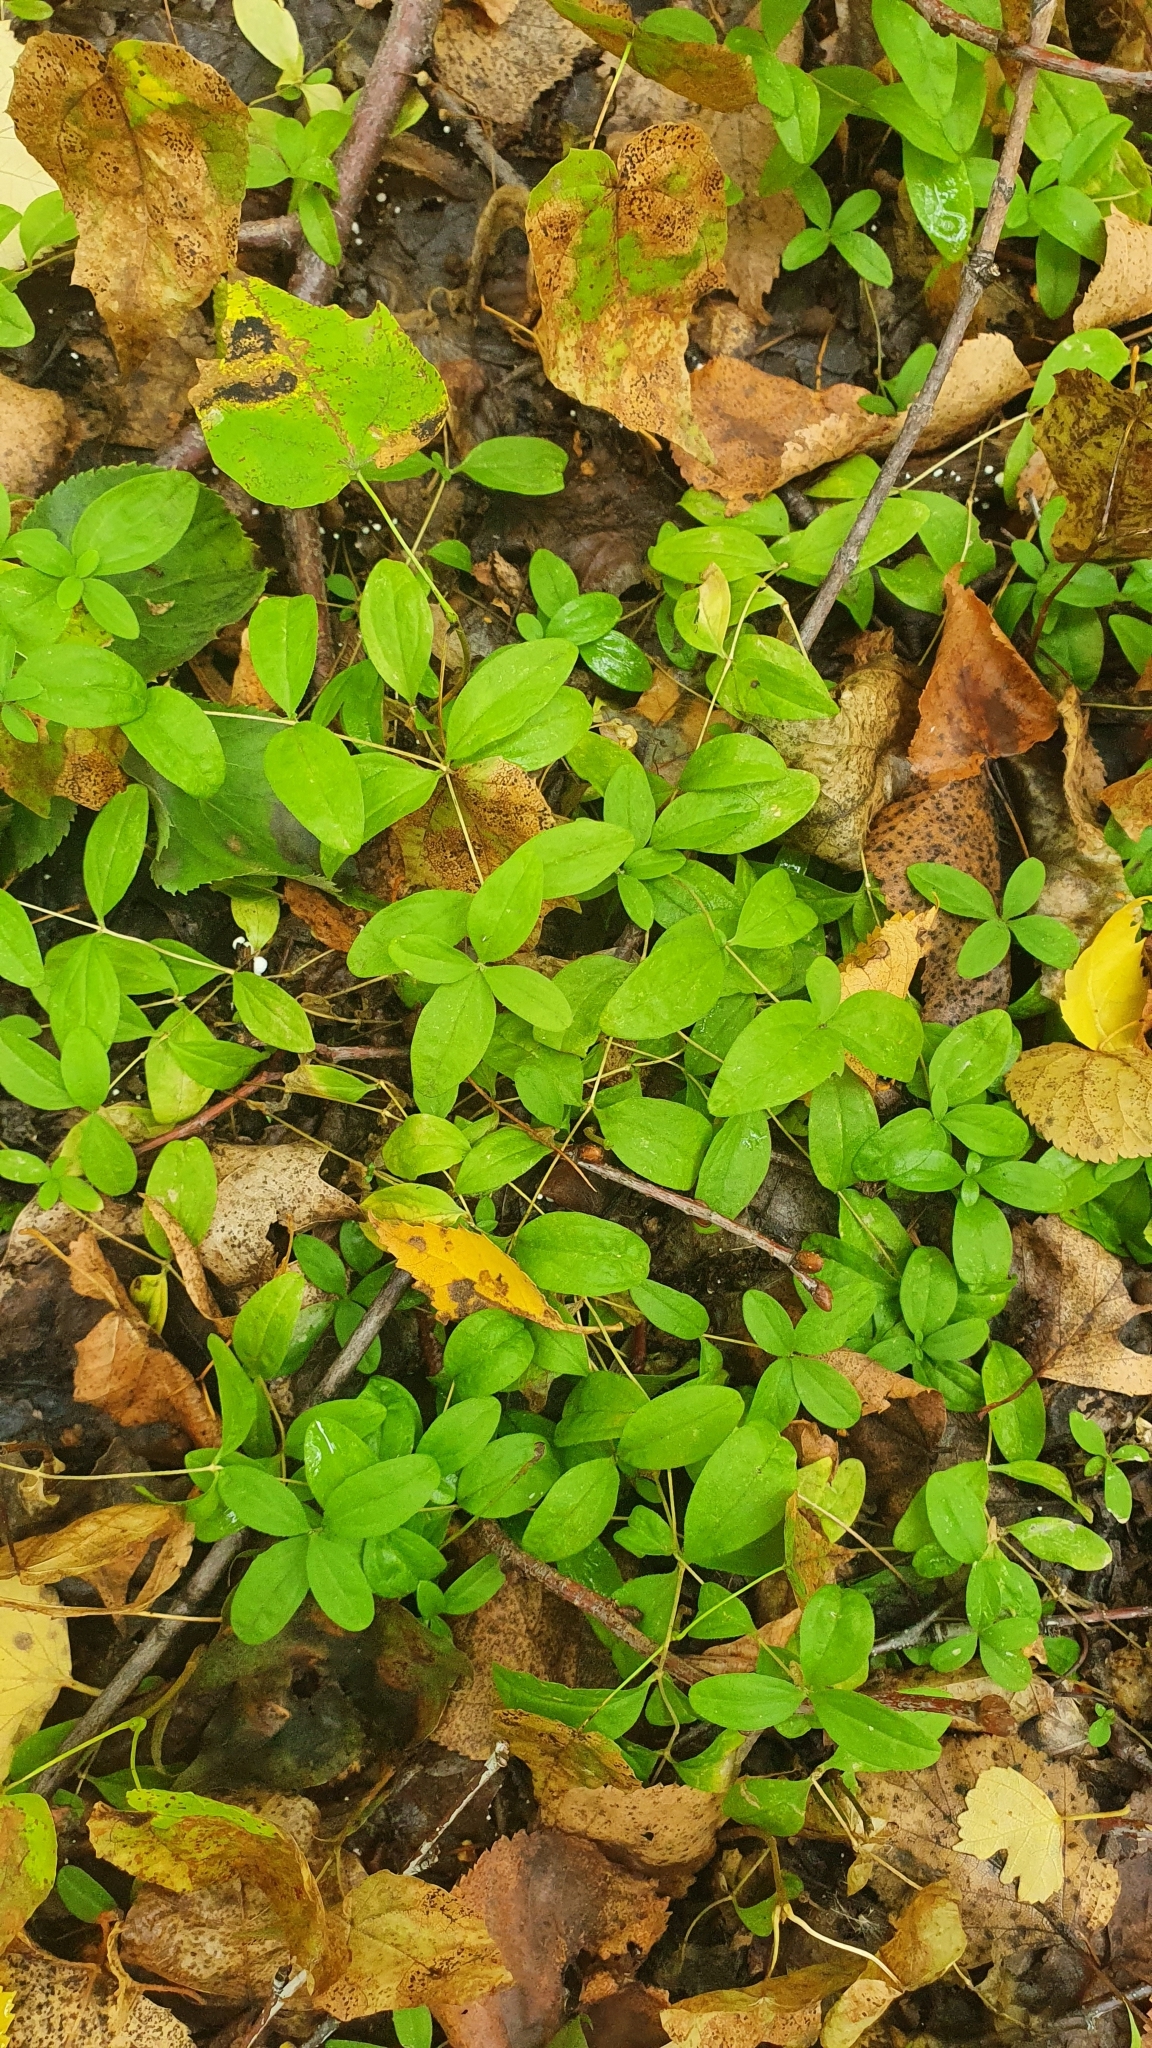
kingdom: Plantae
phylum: Tracheophyta
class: Magnoliopsida
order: Caryophyllales
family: Caryophyllaceae
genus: Moehringia
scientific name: Moehringia lateriflora
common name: Blunt-leaved sandwort
